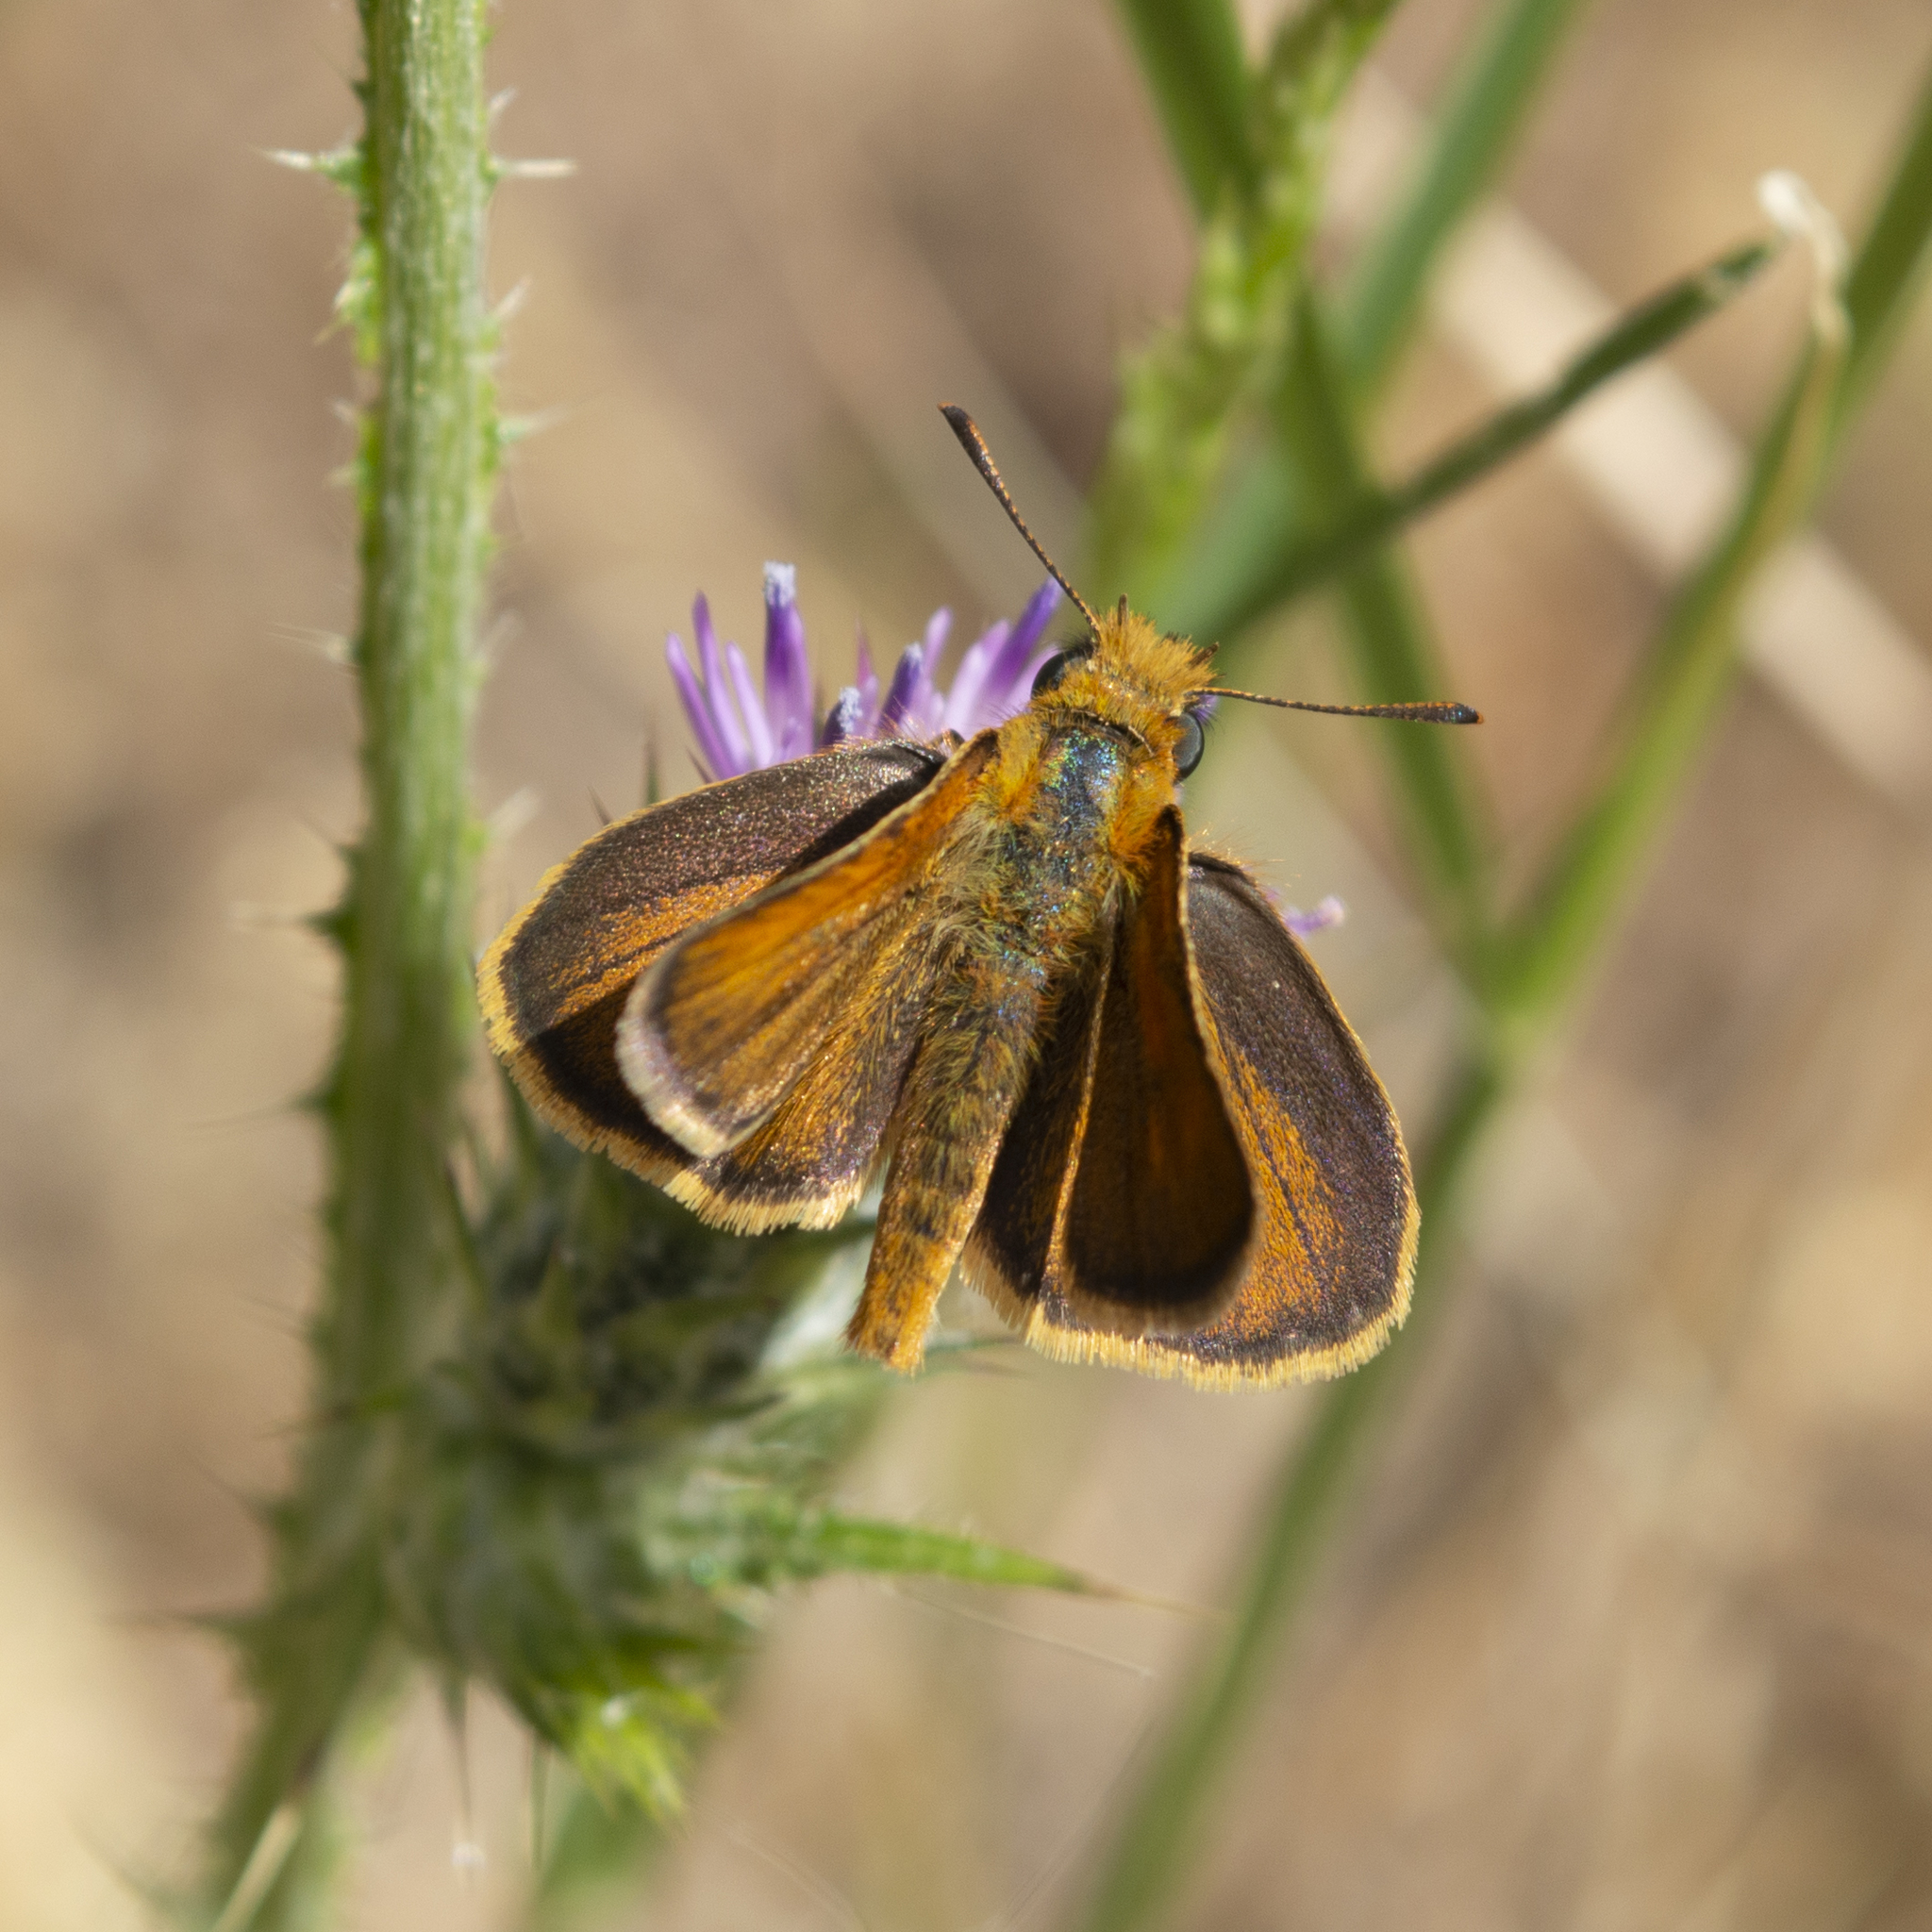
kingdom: Animalia
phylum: Arthropoda
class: Insecta
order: Lepidoptera
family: Hesperiidae
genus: Thymelicus
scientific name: Thymelicus acteon
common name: Lulworth skipper
